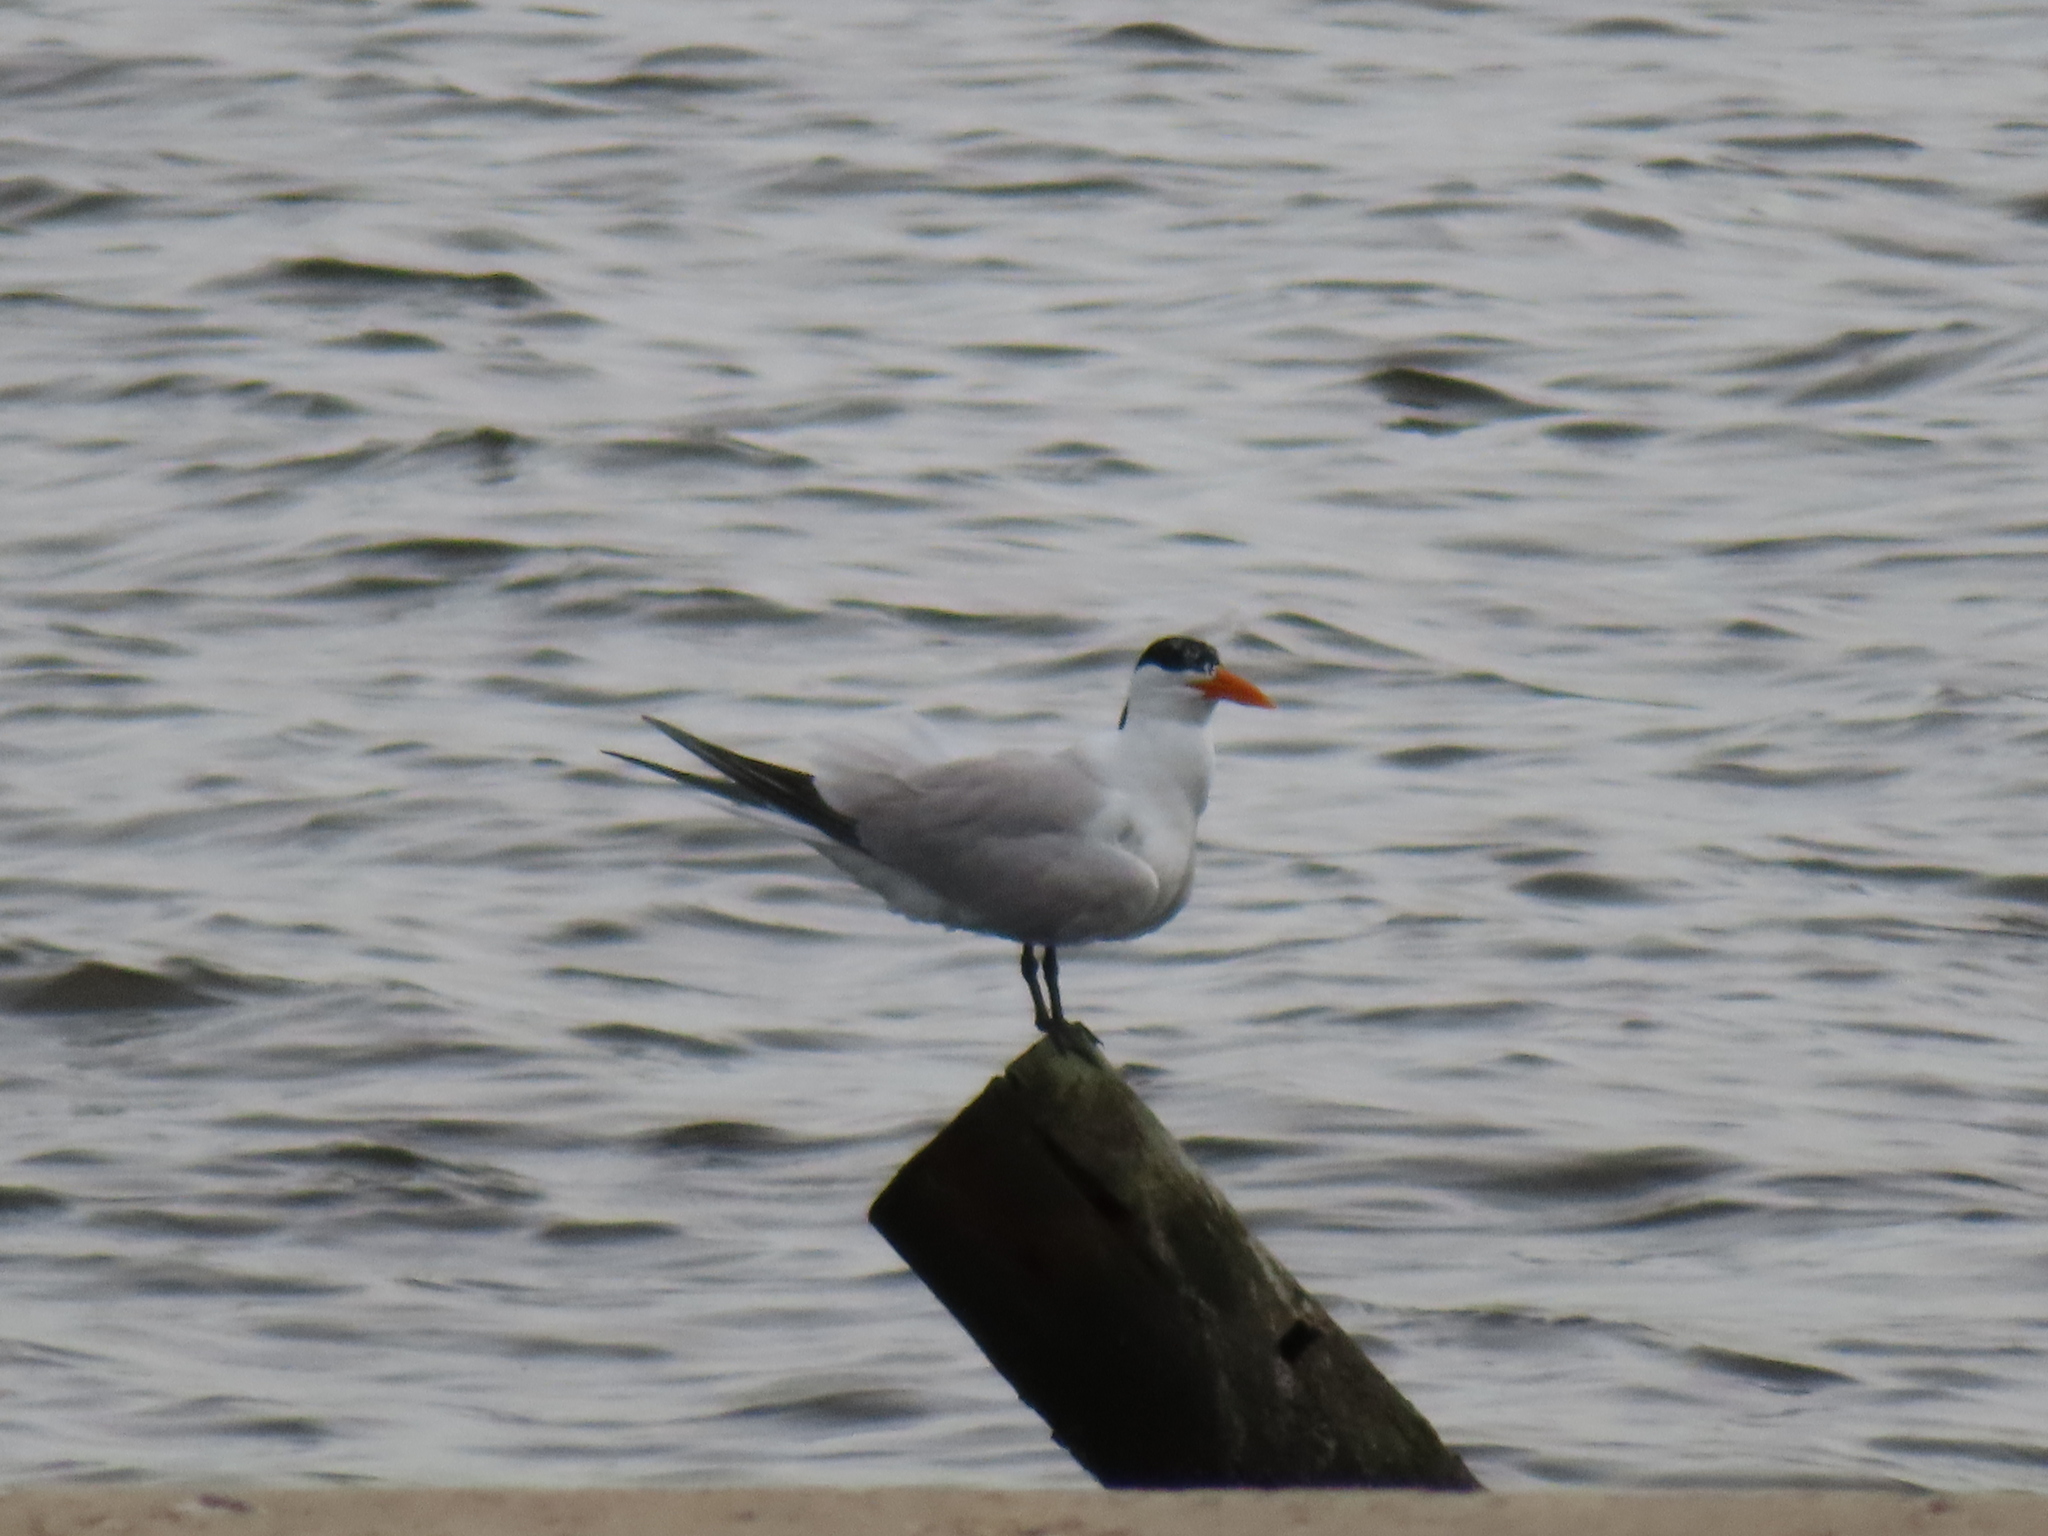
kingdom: Animalia
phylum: Chordata
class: Aves
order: Charadriiformes
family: Laridae
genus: Thalasseus
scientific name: Thalasseus maximus
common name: Royal tern
